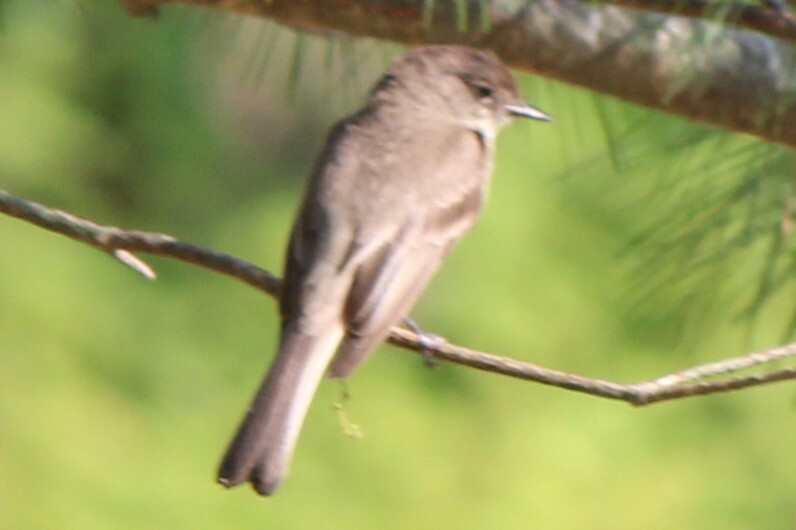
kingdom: Animalia
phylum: Chordata
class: Aves
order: Passeriformes
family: Tyrannidae
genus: Sayornis
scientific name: Sayornis phoebe
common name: Eastern phoebe
